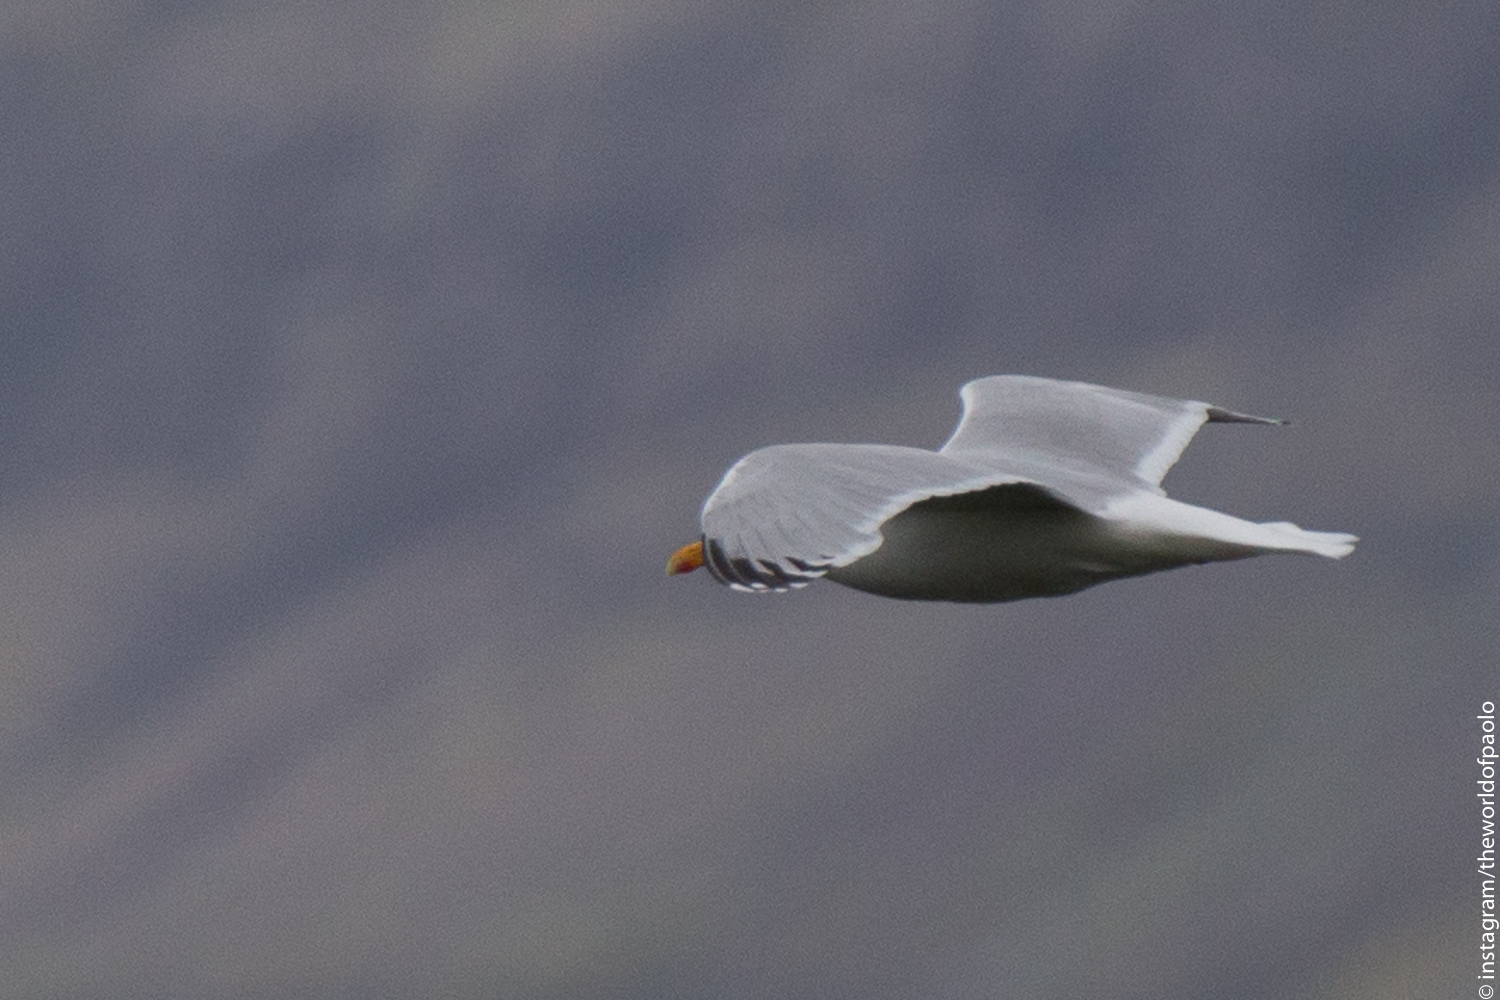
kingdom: Animalia
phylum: Chordata
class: Aves
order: Charadriiformes
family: Laridae
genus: Larus
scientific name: Larus argentatus
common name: Herring gull
